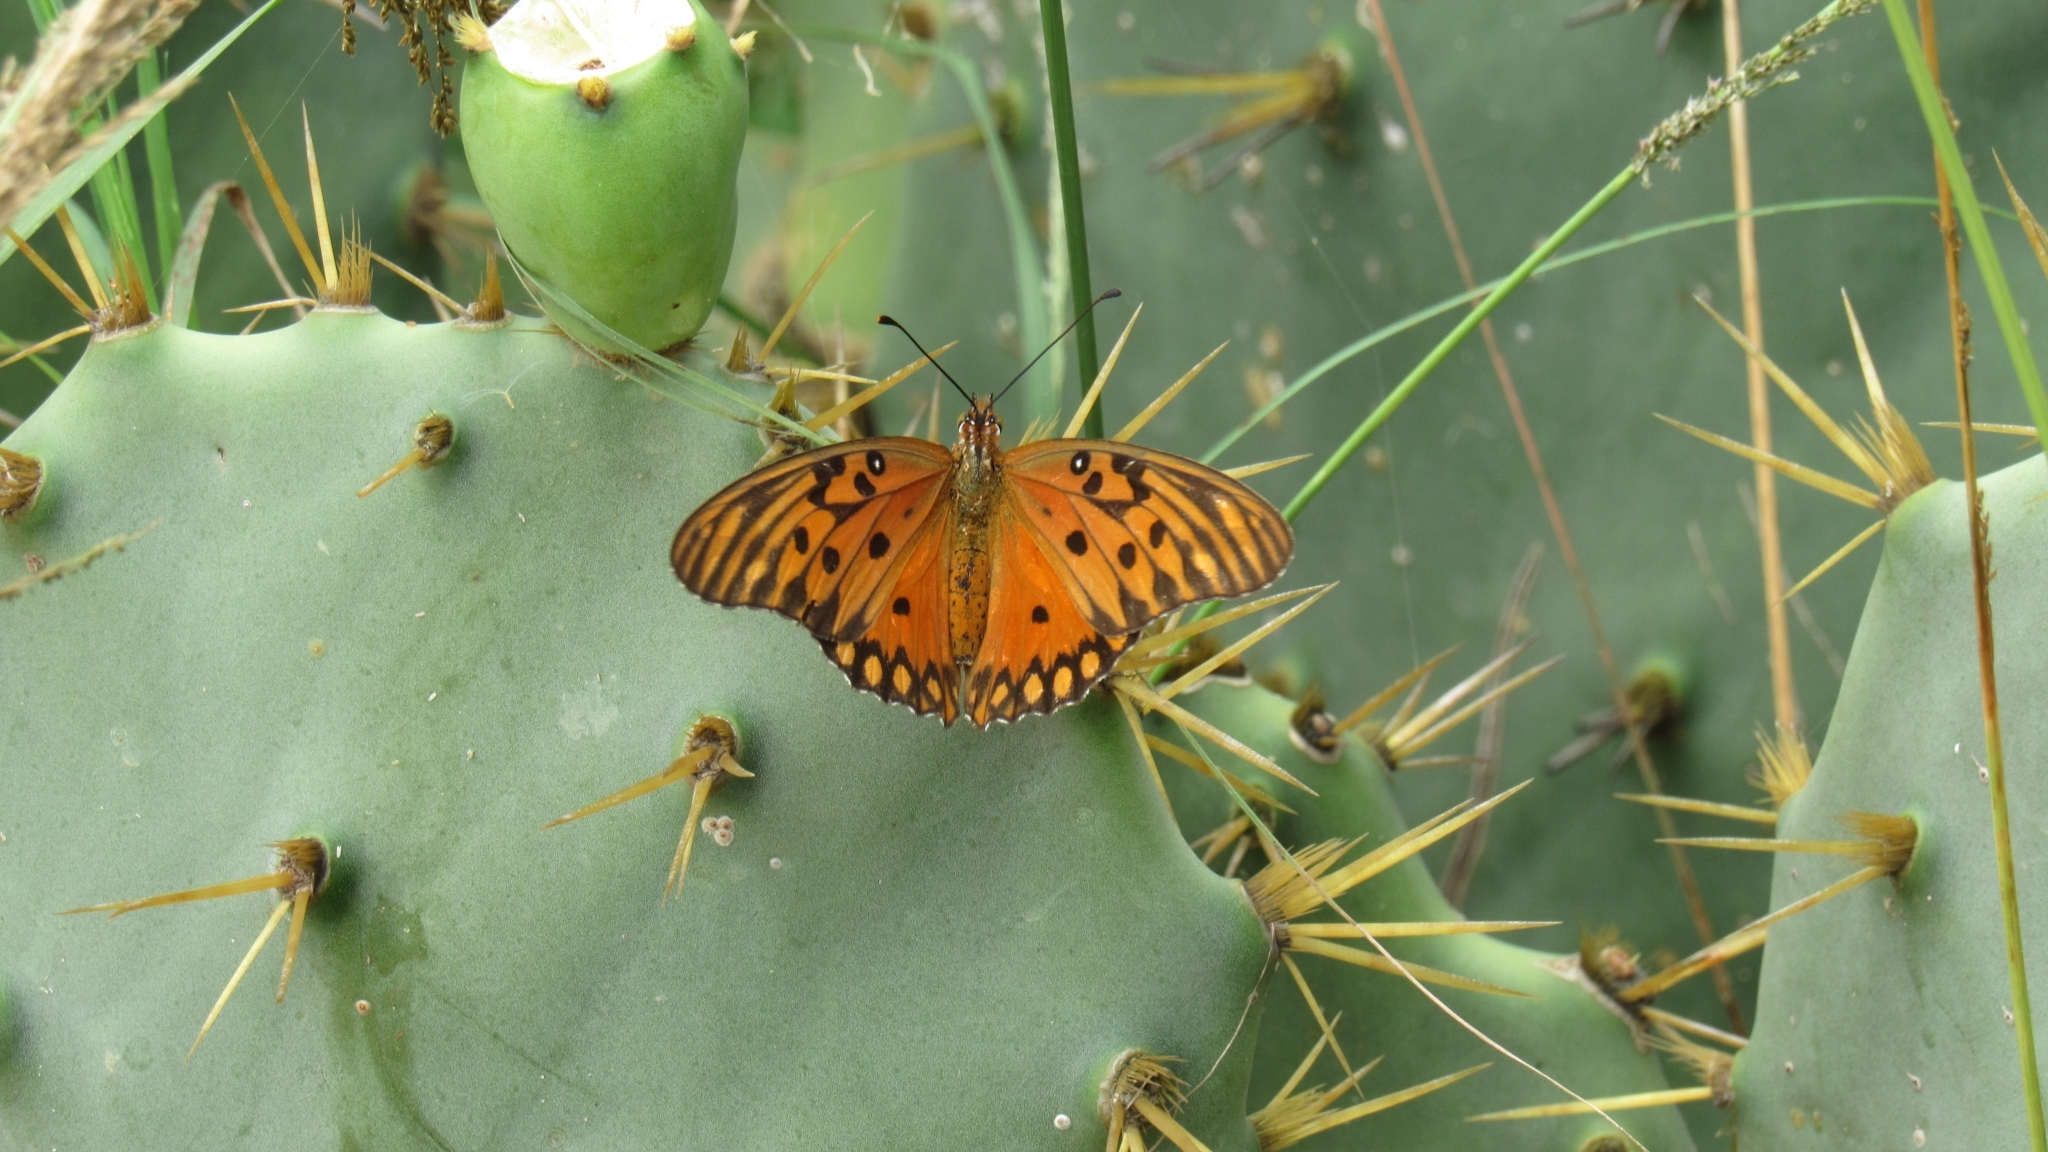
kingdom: Animalia
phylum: Arthropoda
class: Insecta
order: Lepidoptera
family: Nymphalidae
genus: Dione
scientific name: Dione vanillae
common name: Gulf fritillary
